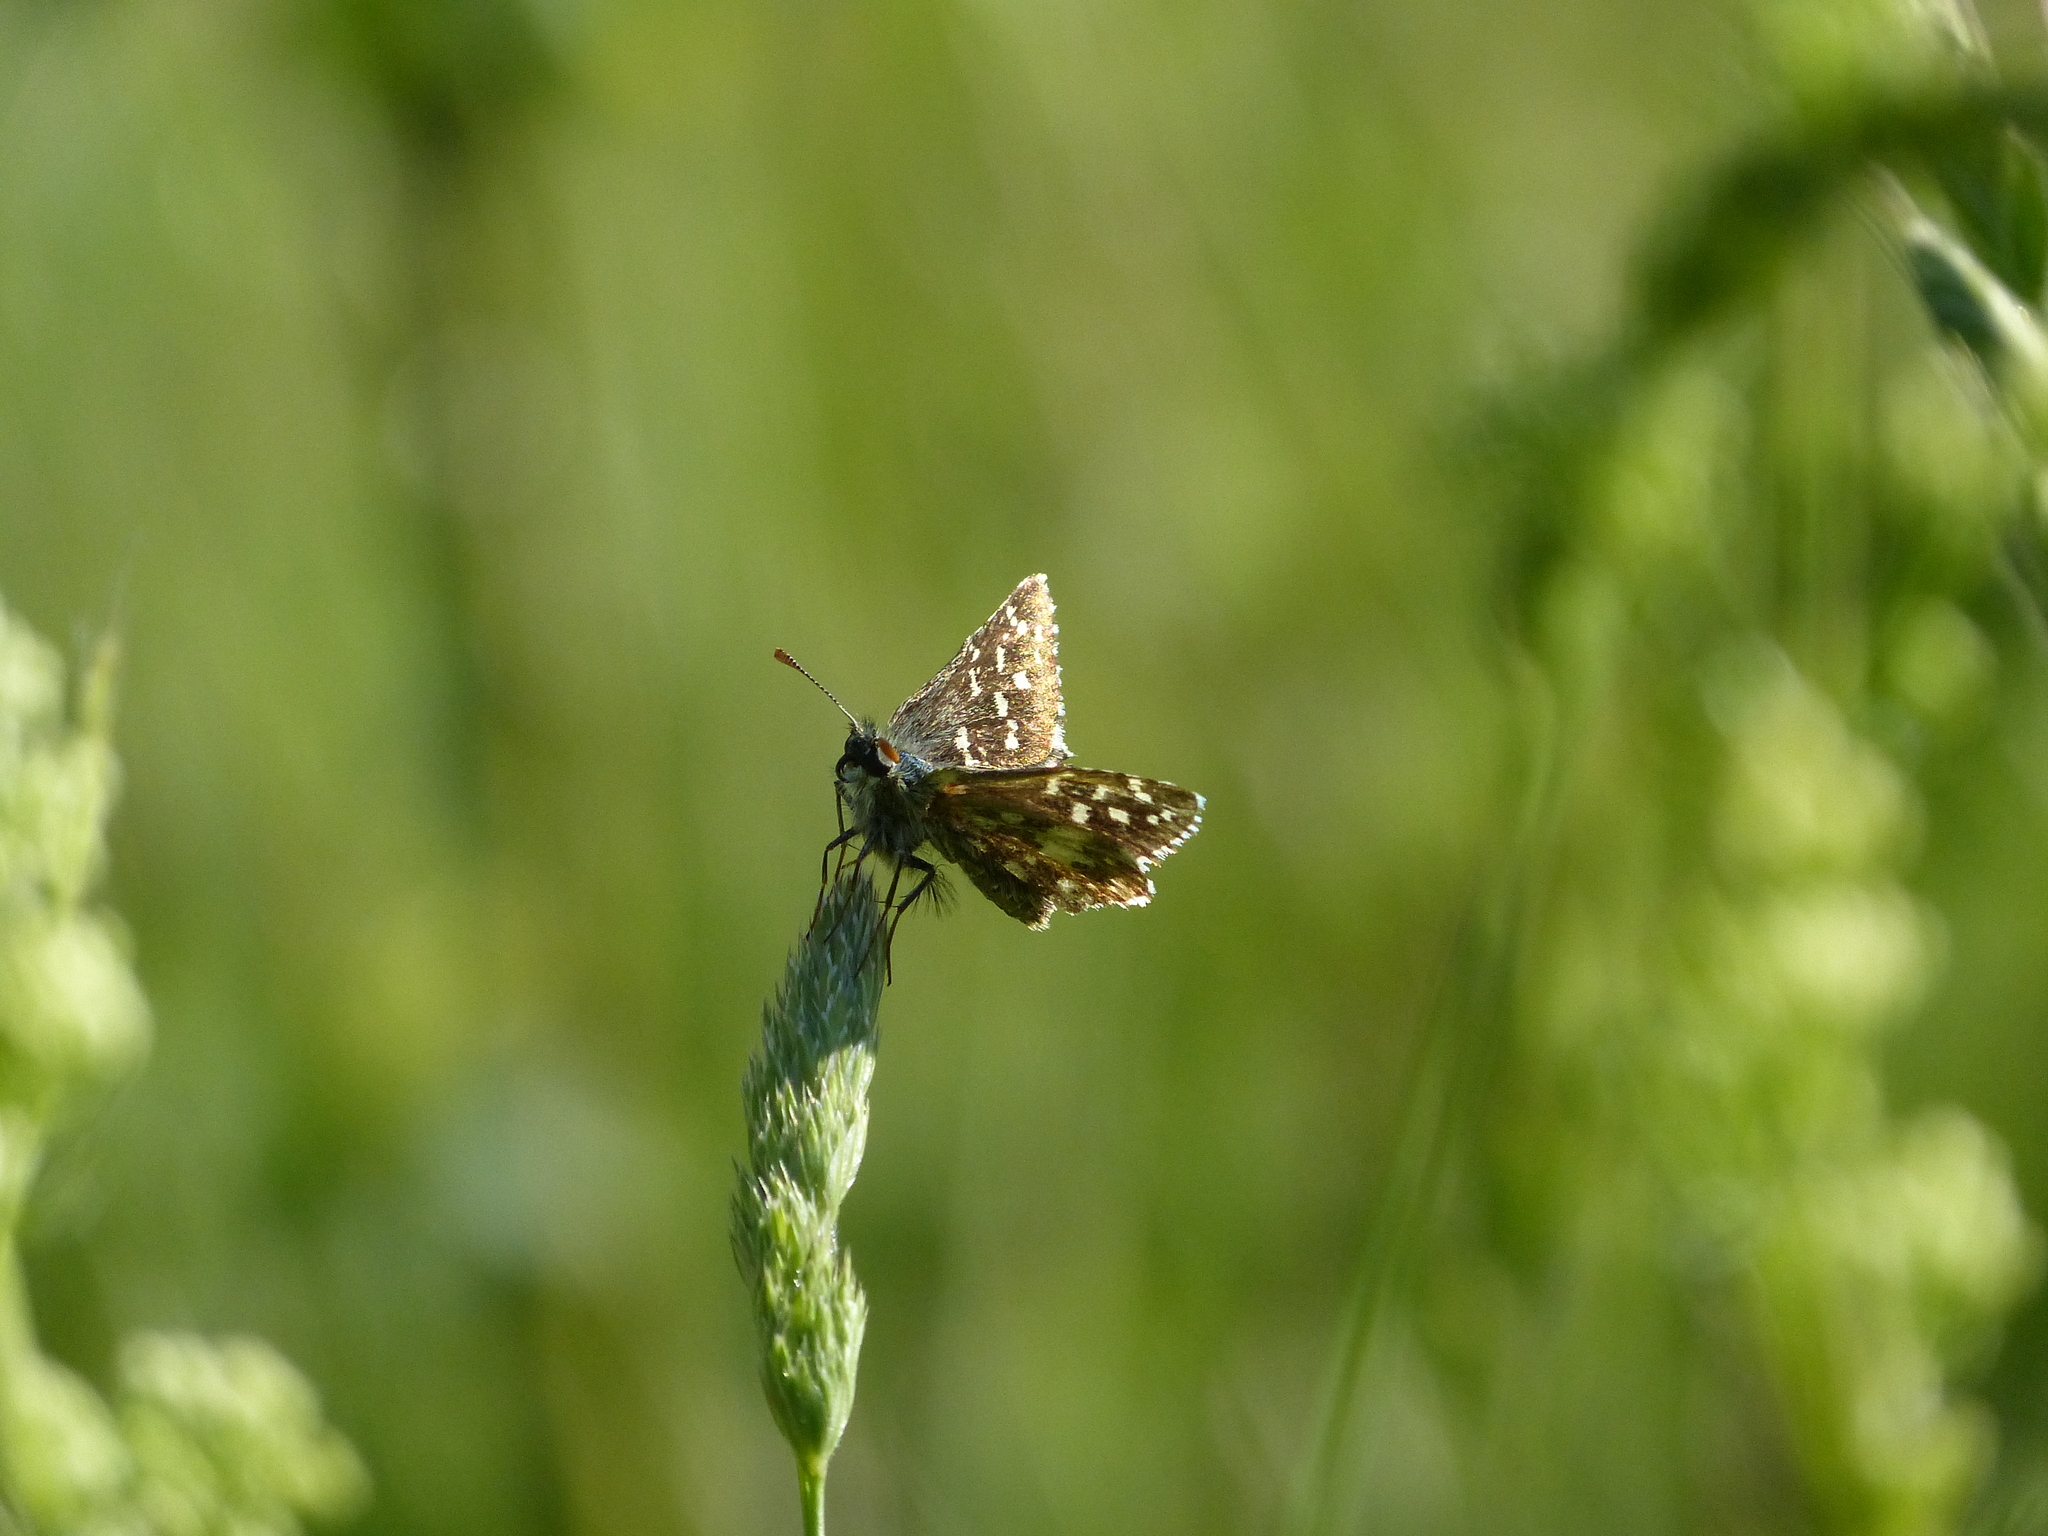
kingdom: Animalia
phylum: Arthropoda
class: Insecta
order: Lepidoptera
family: Hesperiidae
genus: Pyrgus
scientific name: Pyrgus malvoides
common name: Southern grizzled skipper
